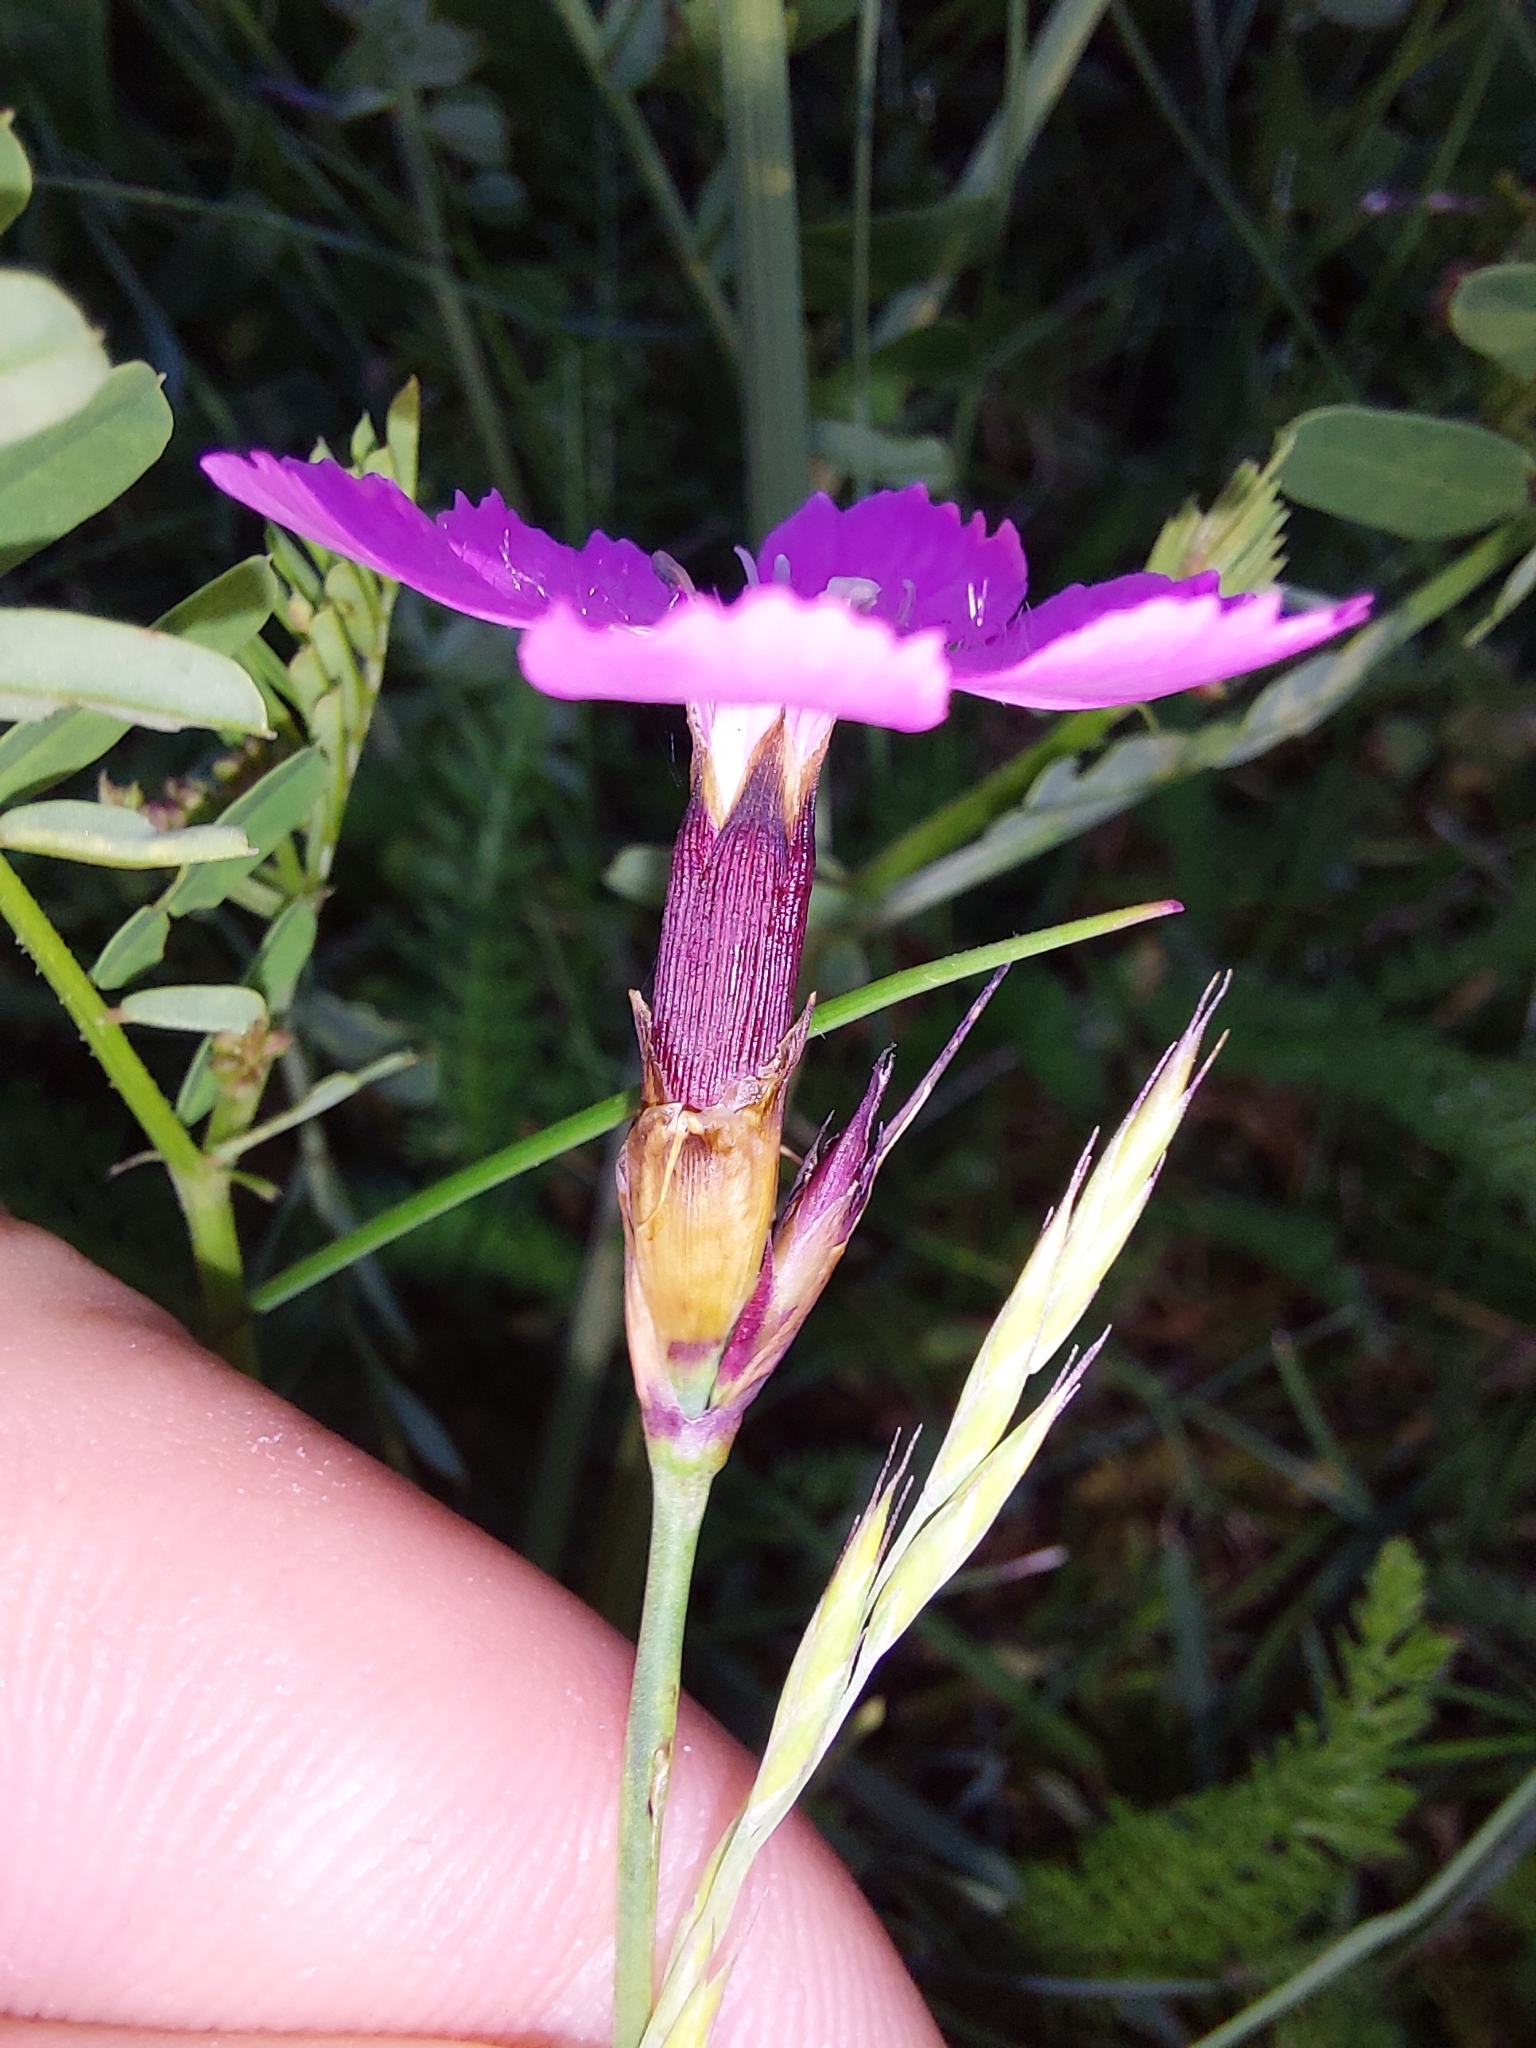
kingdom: Plantae
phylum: Tracheophyta
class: Magnoliopsida
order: Caryophyllales
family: Caryophyllaceae
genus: Dianthus
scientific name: Dianthus carthusianorum
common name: Carthusian pink
